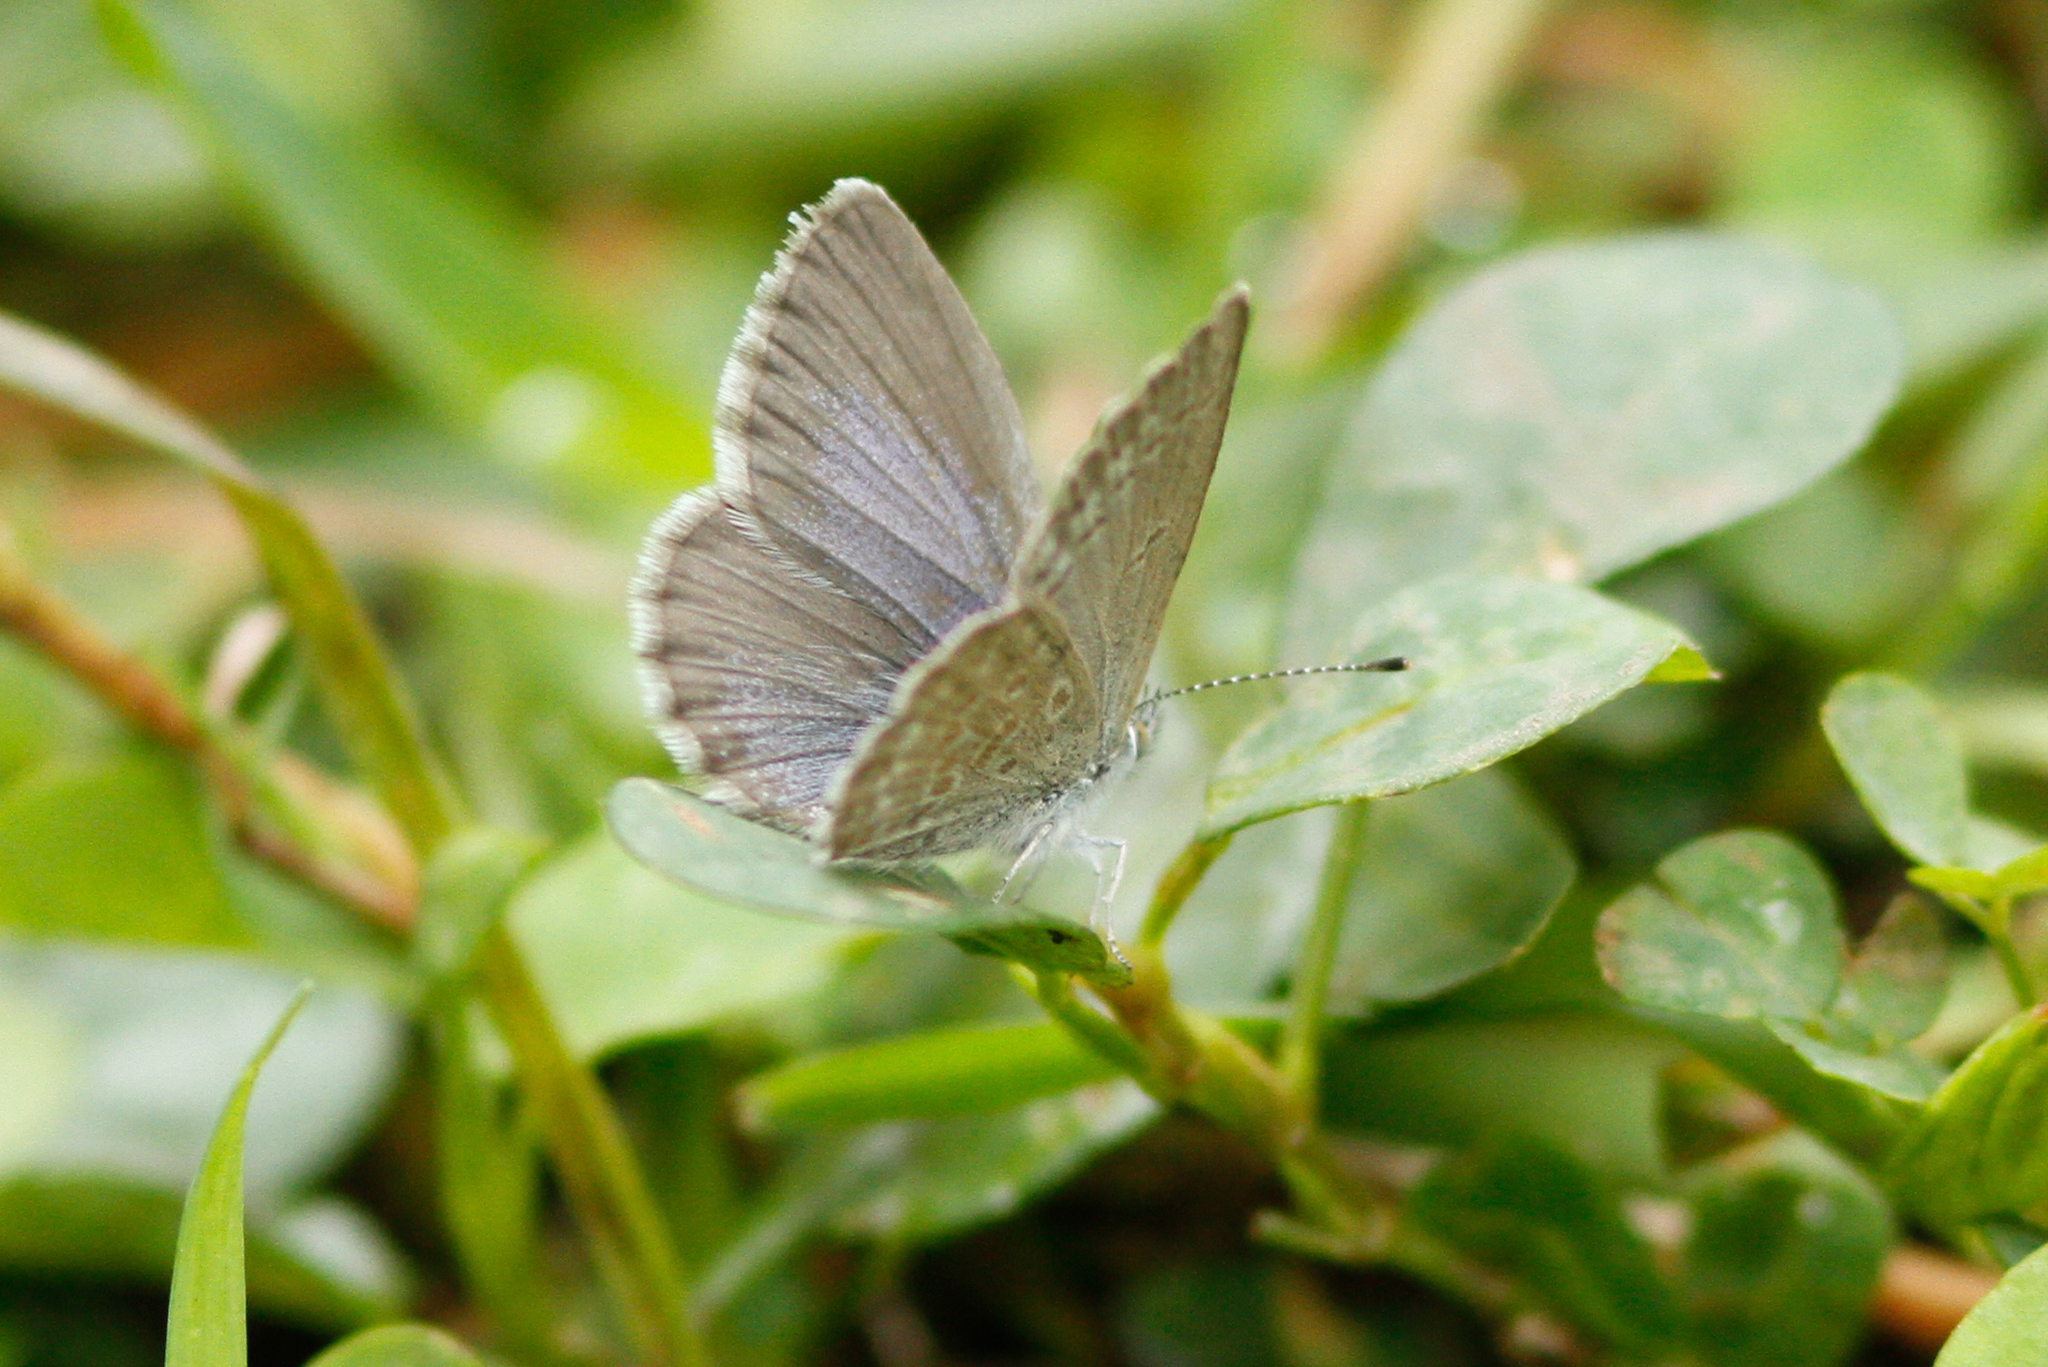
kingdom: Animalia
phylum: Arthropoda
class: Insecta
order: Lepidoptera
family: Lycaenidae
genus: Zizina
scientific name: Zizina labradus
